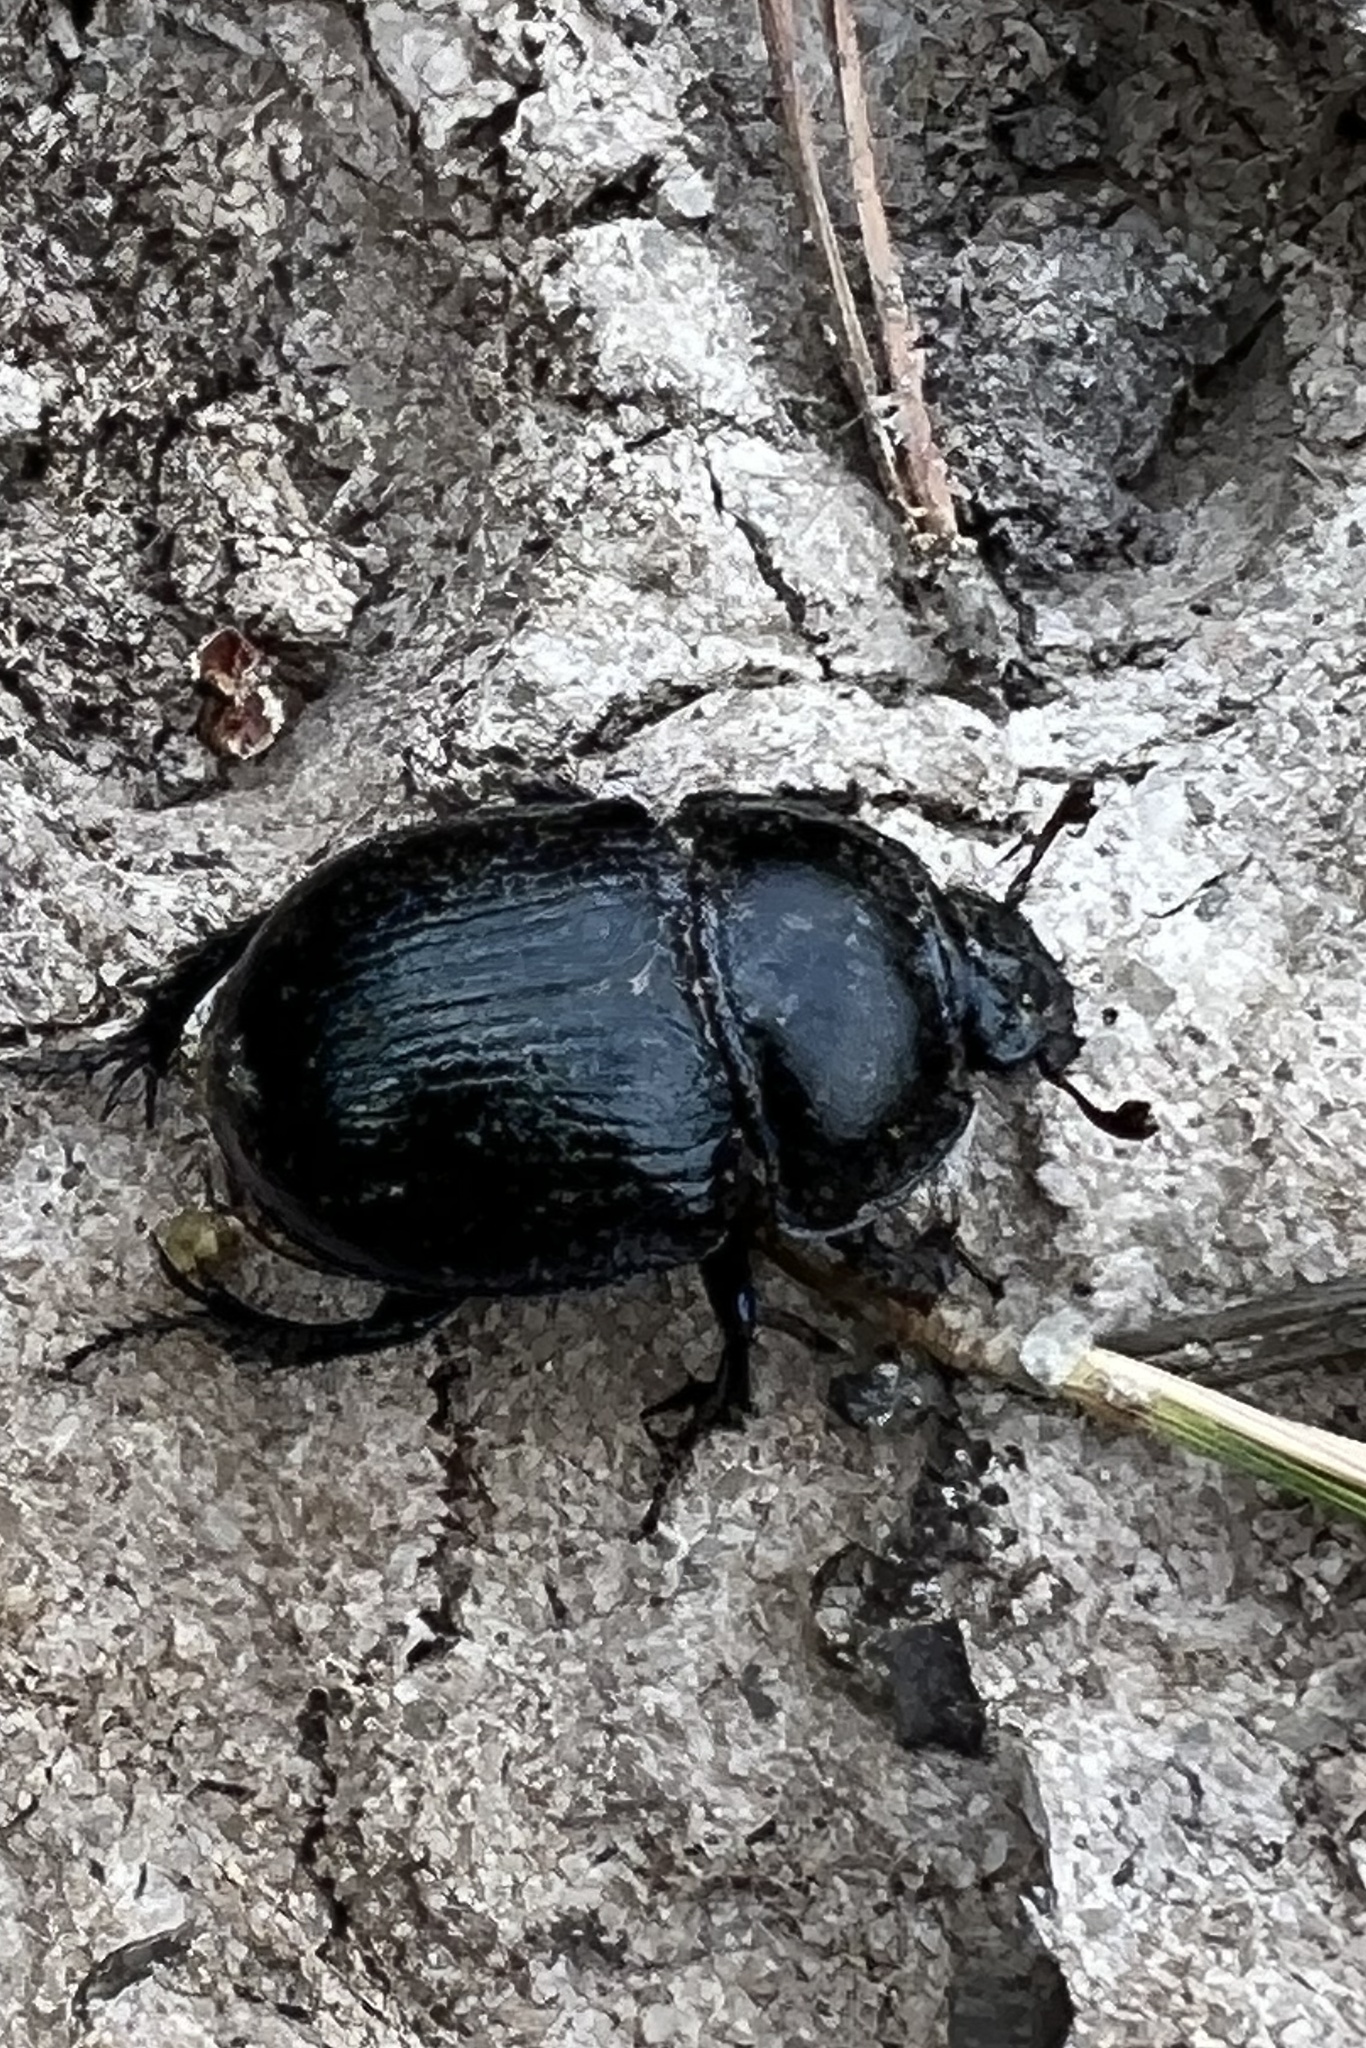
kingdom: Animalia
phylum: Arthropoda
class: Insecta
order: Coleoptera
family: Geotrupidae
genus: Anoplotrupes
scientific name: Anoplotrupes stercorosus
